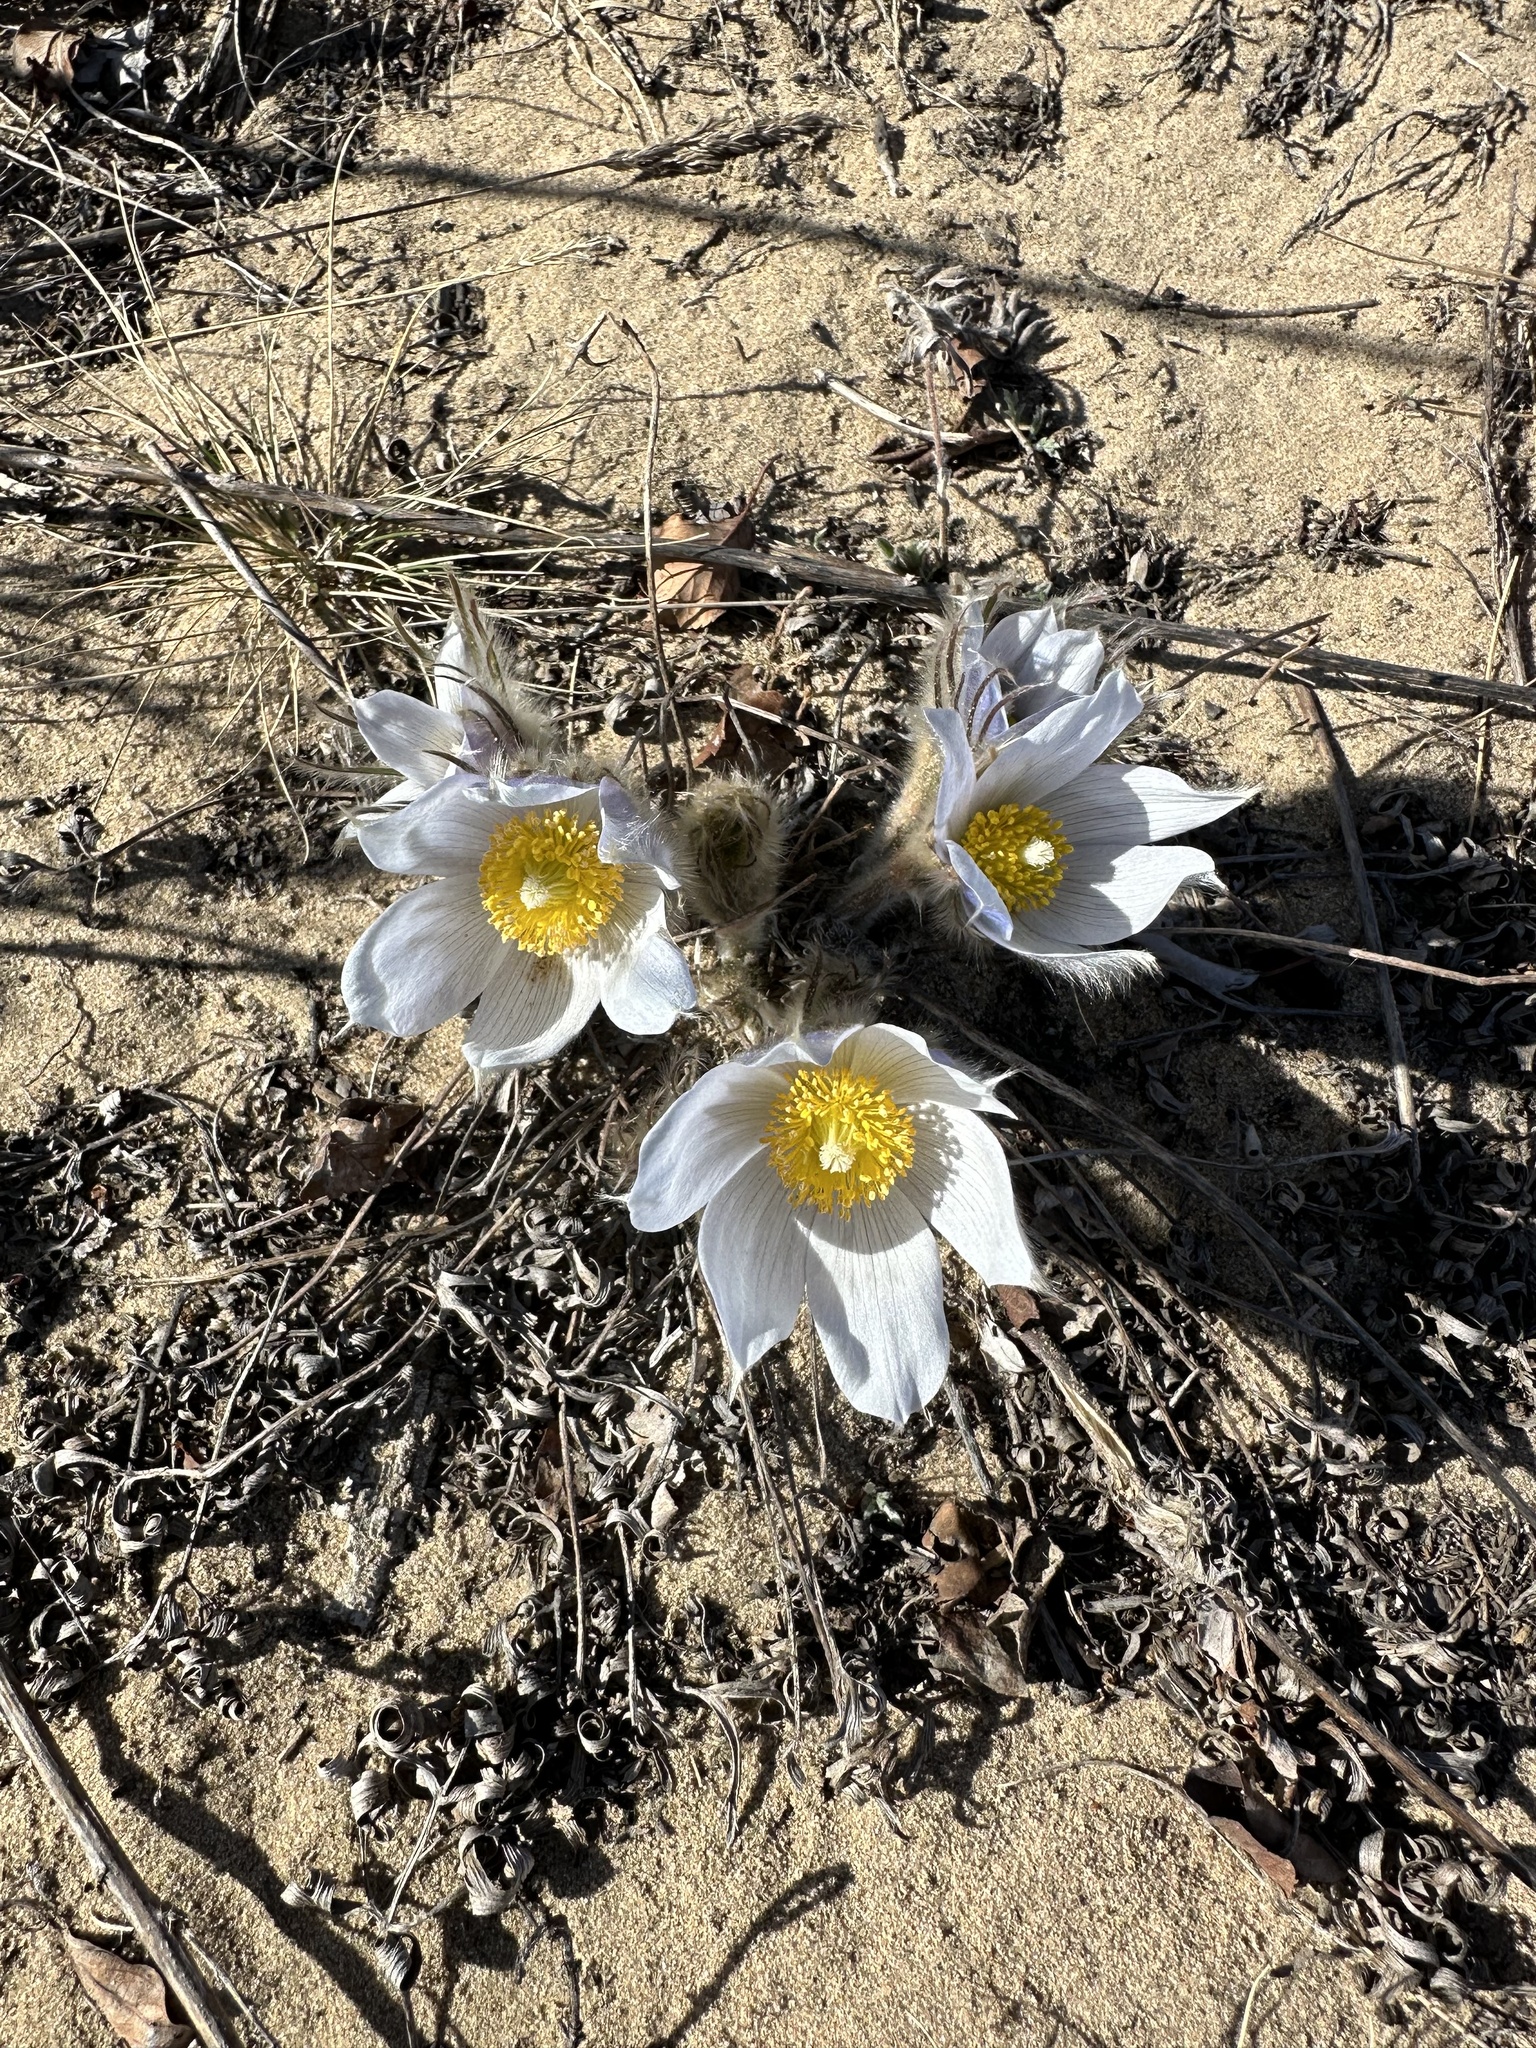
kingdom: Plantae
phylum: Tracheophyta
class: Magnoliopsida
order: Ranunculales
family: Ranunculaceae
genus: Pulsatilla
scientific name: Pulsatilla nuttalliana
